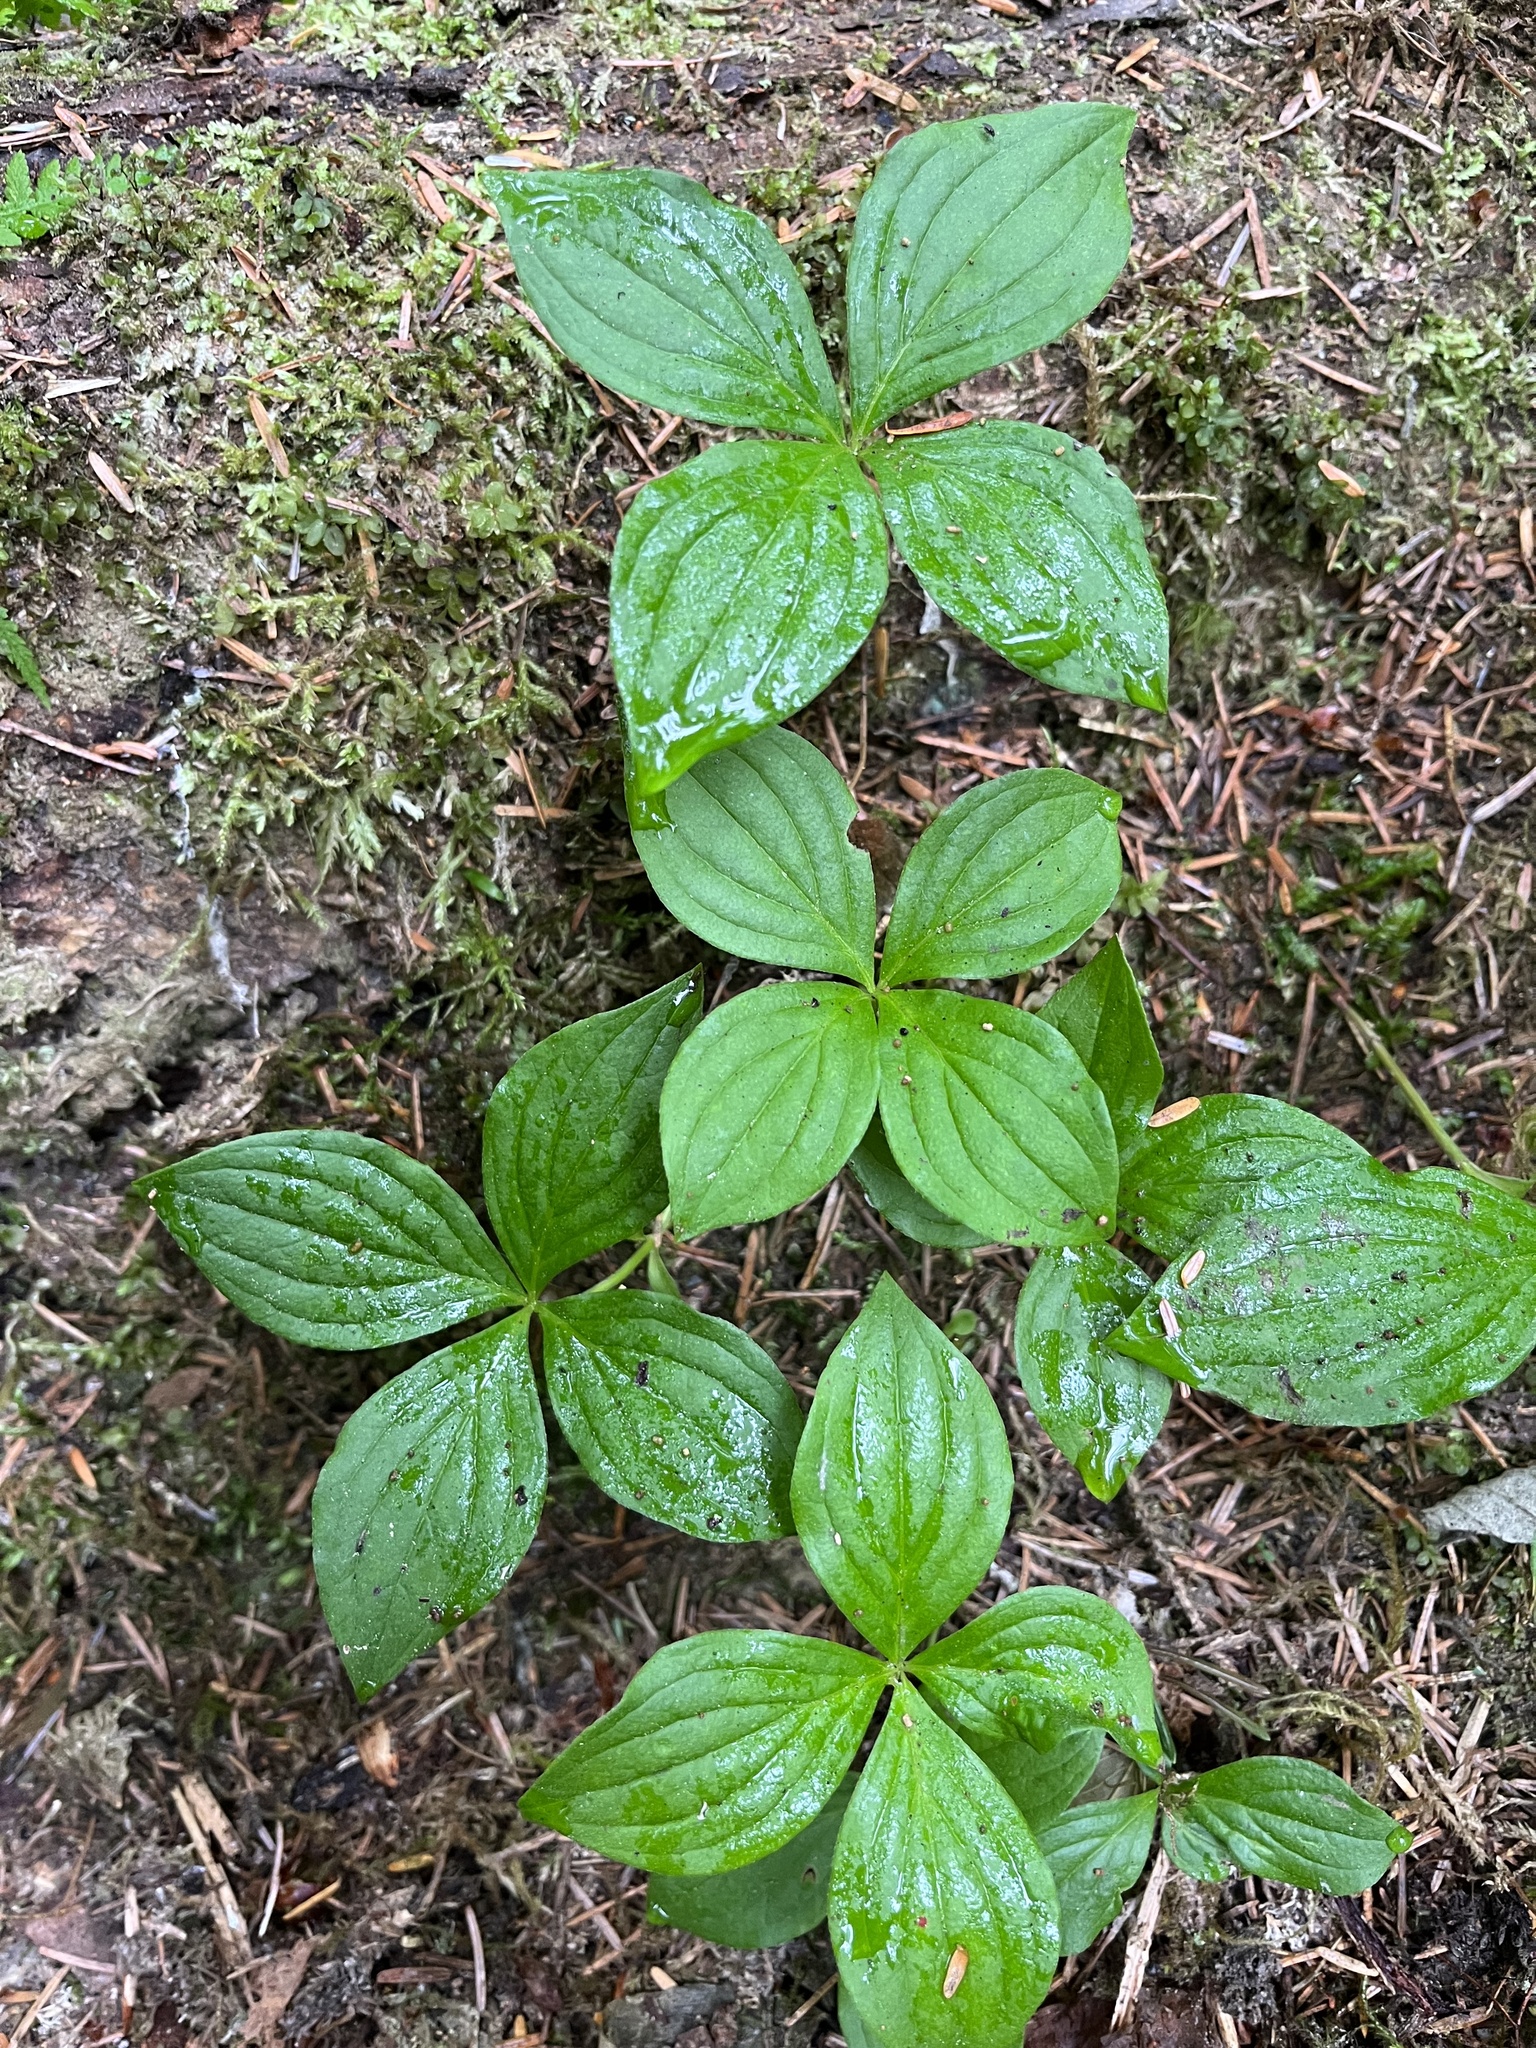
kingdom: Plantae
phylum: Tracheophyta
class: Magnoliopsida
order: Cornales
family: Cornaceae
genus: Cornus
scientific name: Cornus unalaschkensis
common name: Alaska bunchberry
